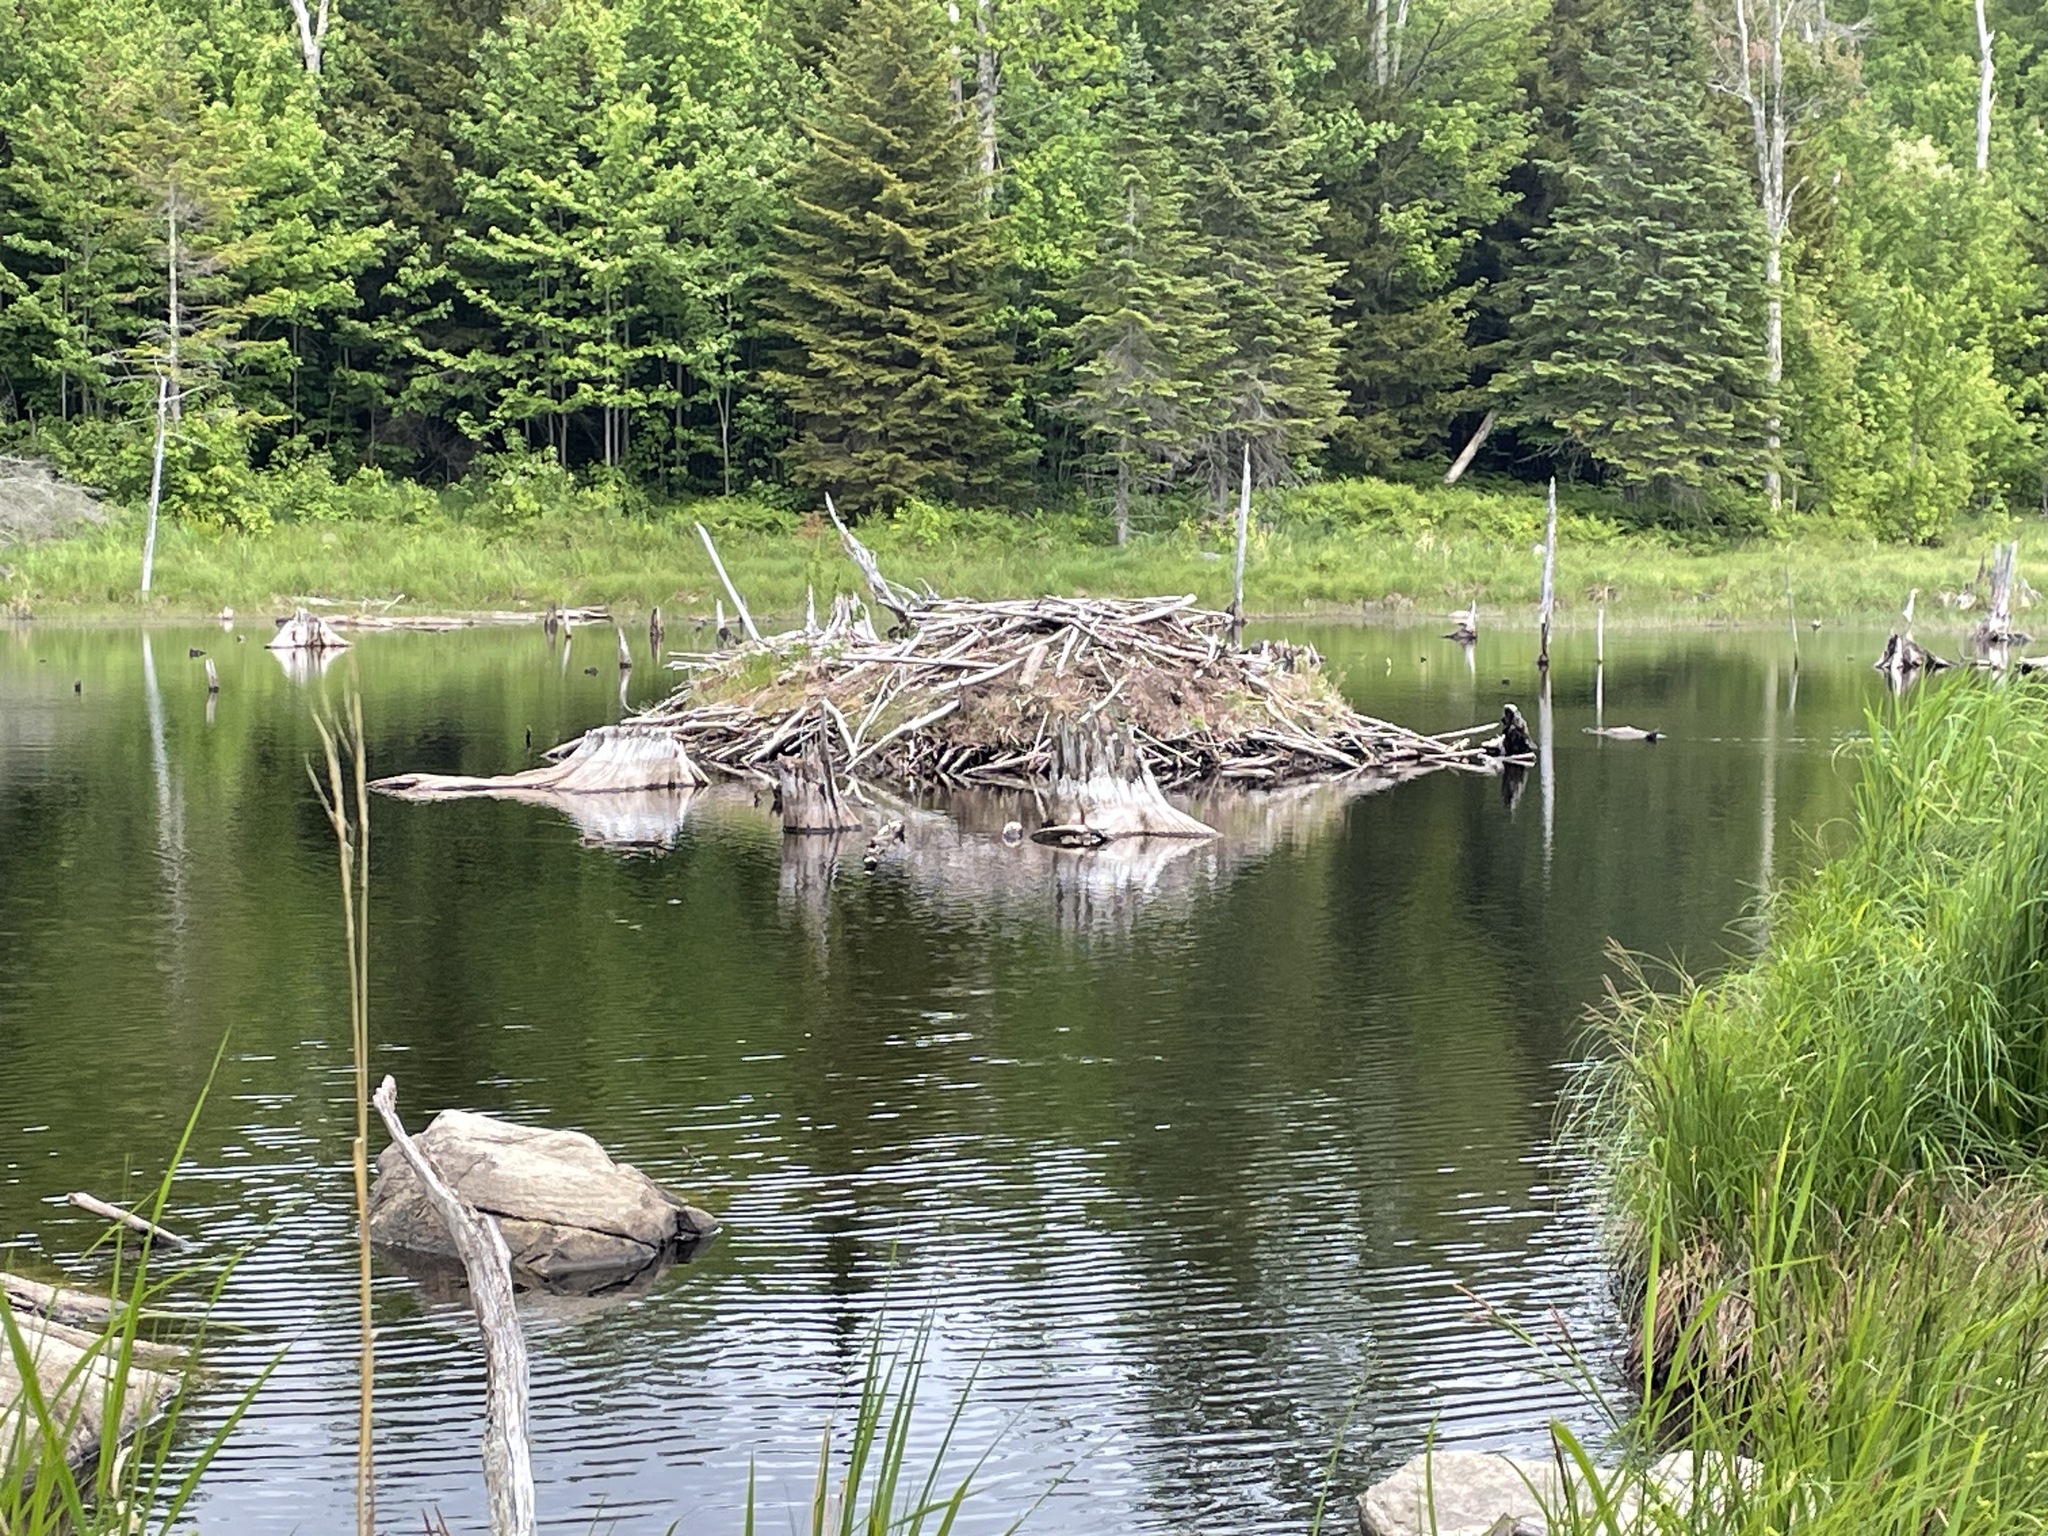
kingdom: Animalia
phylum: Chordata
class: Mammalia
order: Rodentia
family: Castoridae
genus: Castor
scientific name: Castor canadensis
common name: American beaver
